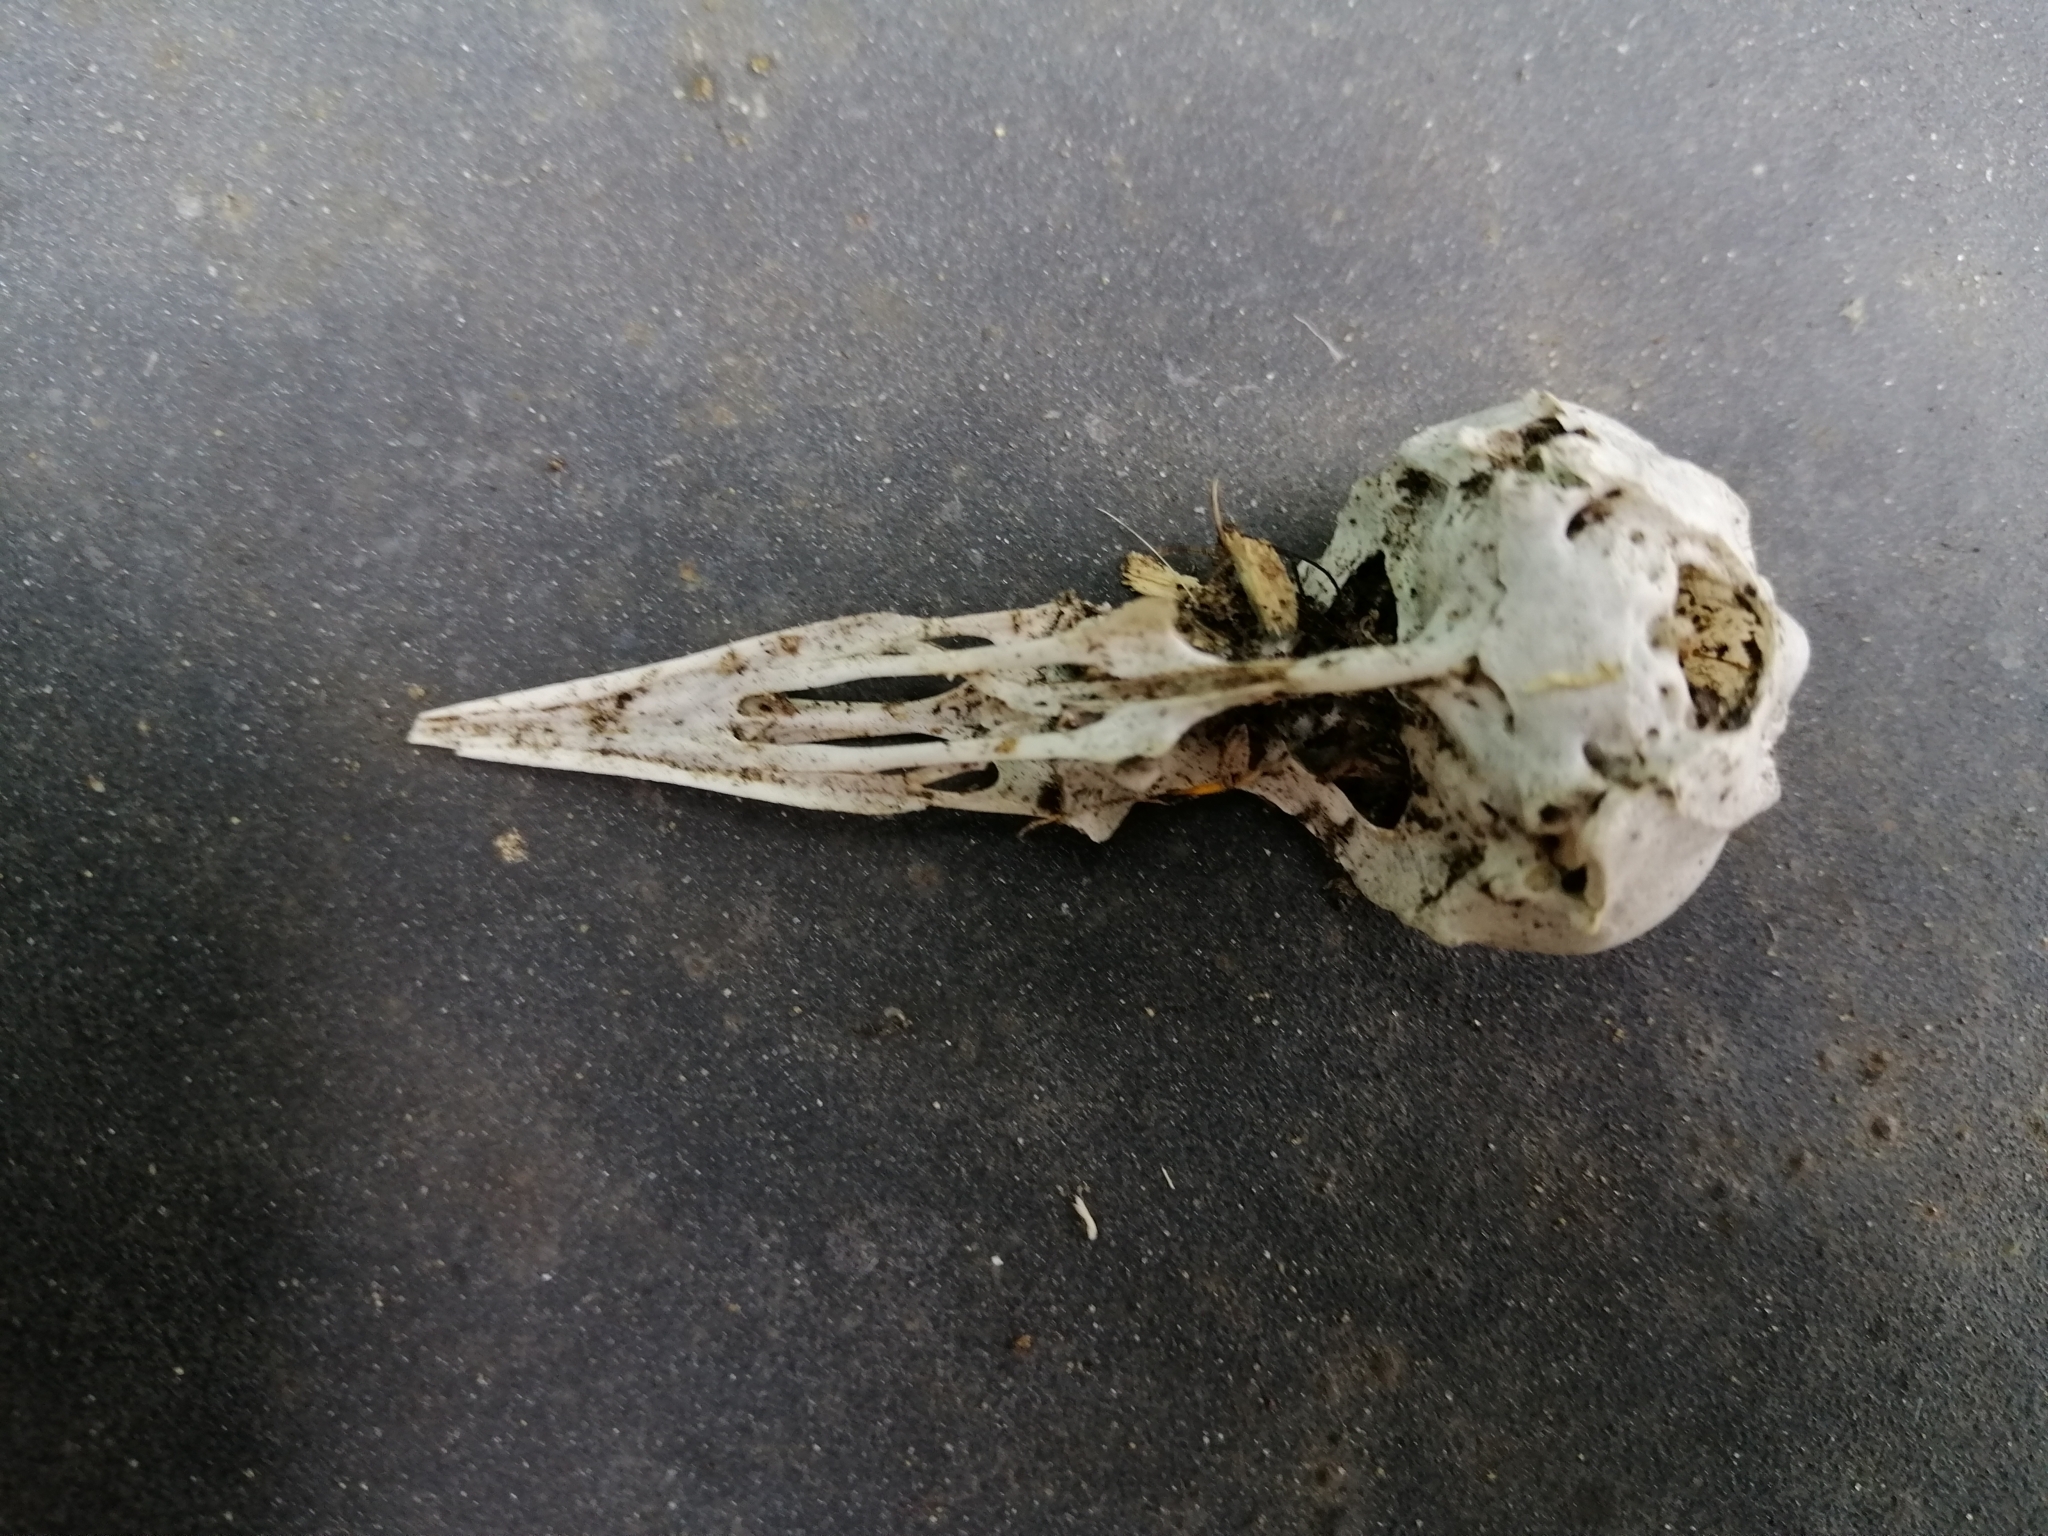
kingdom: Animalia
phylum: Chordata
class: Aves
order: Passeriformes
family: Sturnidae
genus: Sturnus
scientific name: Sturnus vulgaris
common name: Common starling
